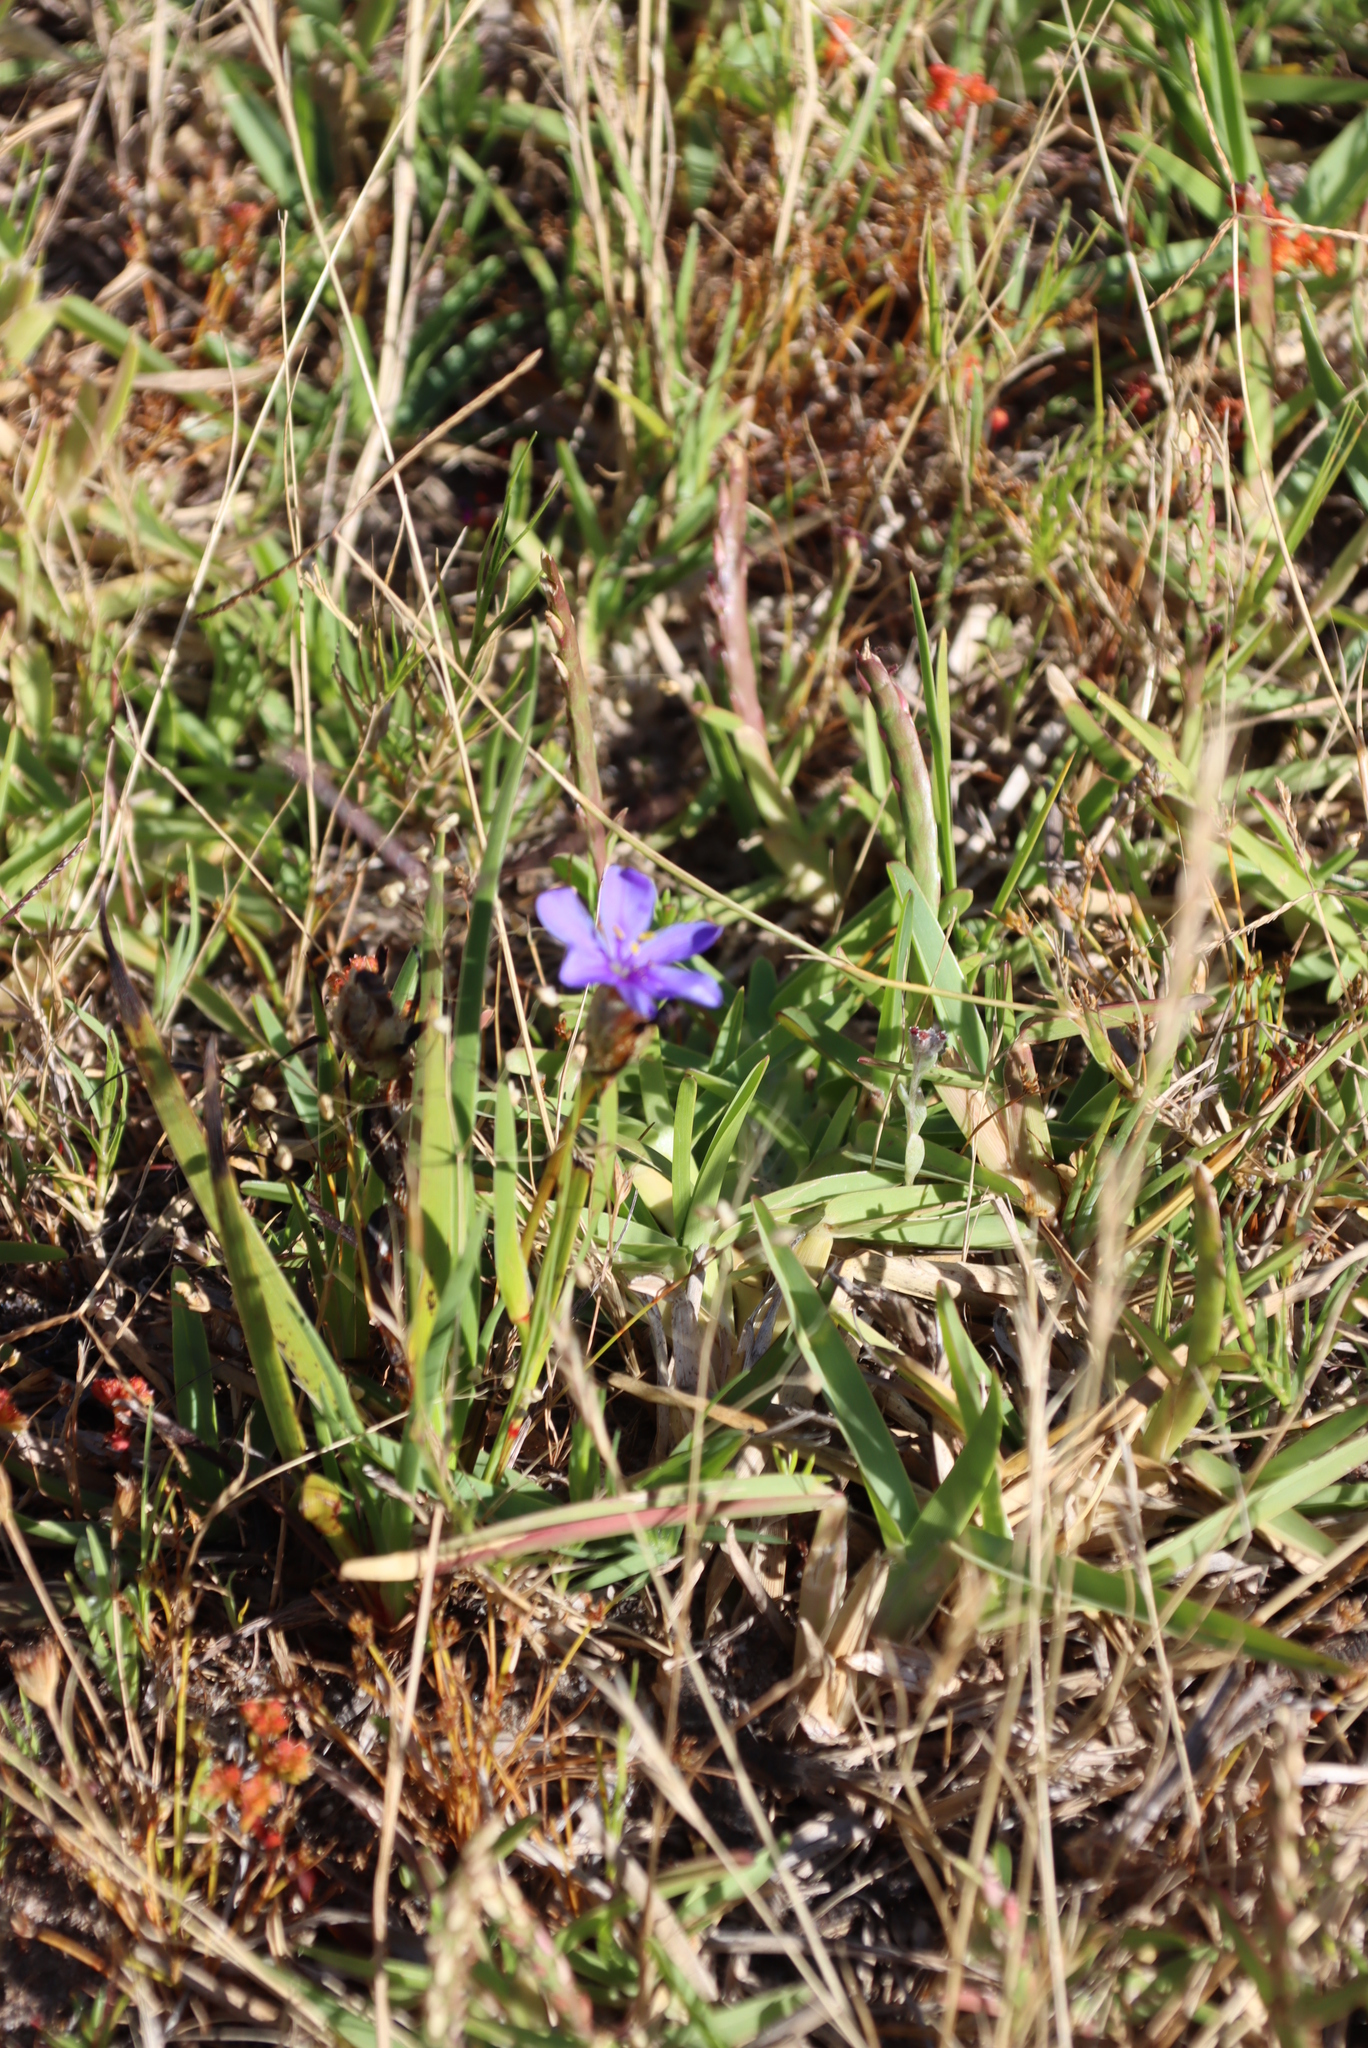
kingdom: Plantae
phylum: Tracheophyta
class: Liliopsida
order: Asparagales
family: Iridaceae
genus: Aristea
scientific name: Aristea africana
